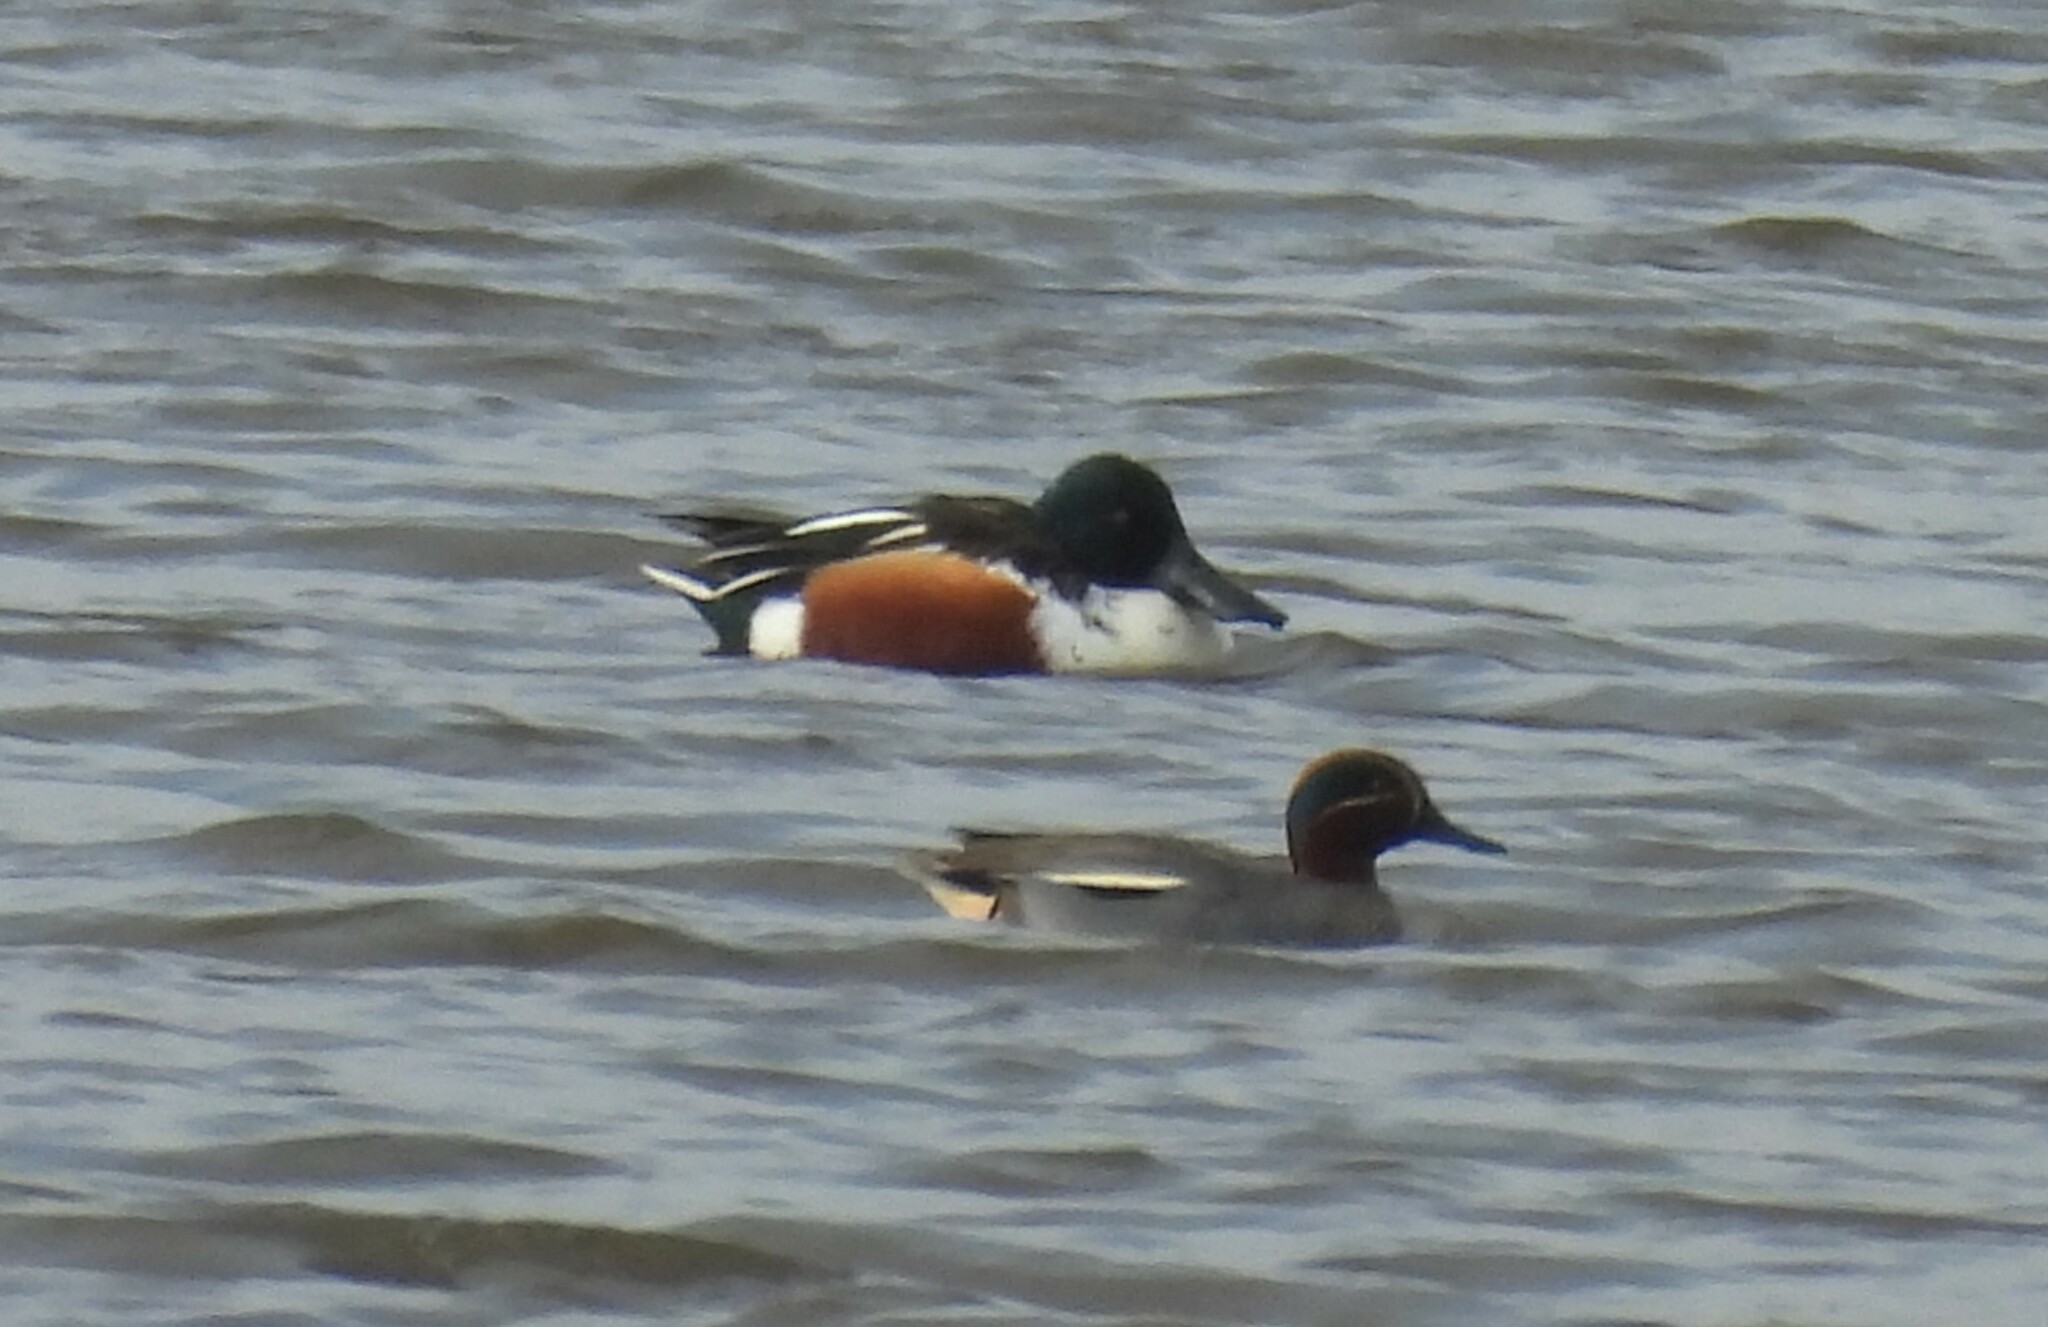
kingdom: Animalia
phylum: Chordata
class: Aves
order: Anseriformes
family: Anatidae
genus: Spatula
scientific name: Spatula clypeata
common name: Northern shoveler
